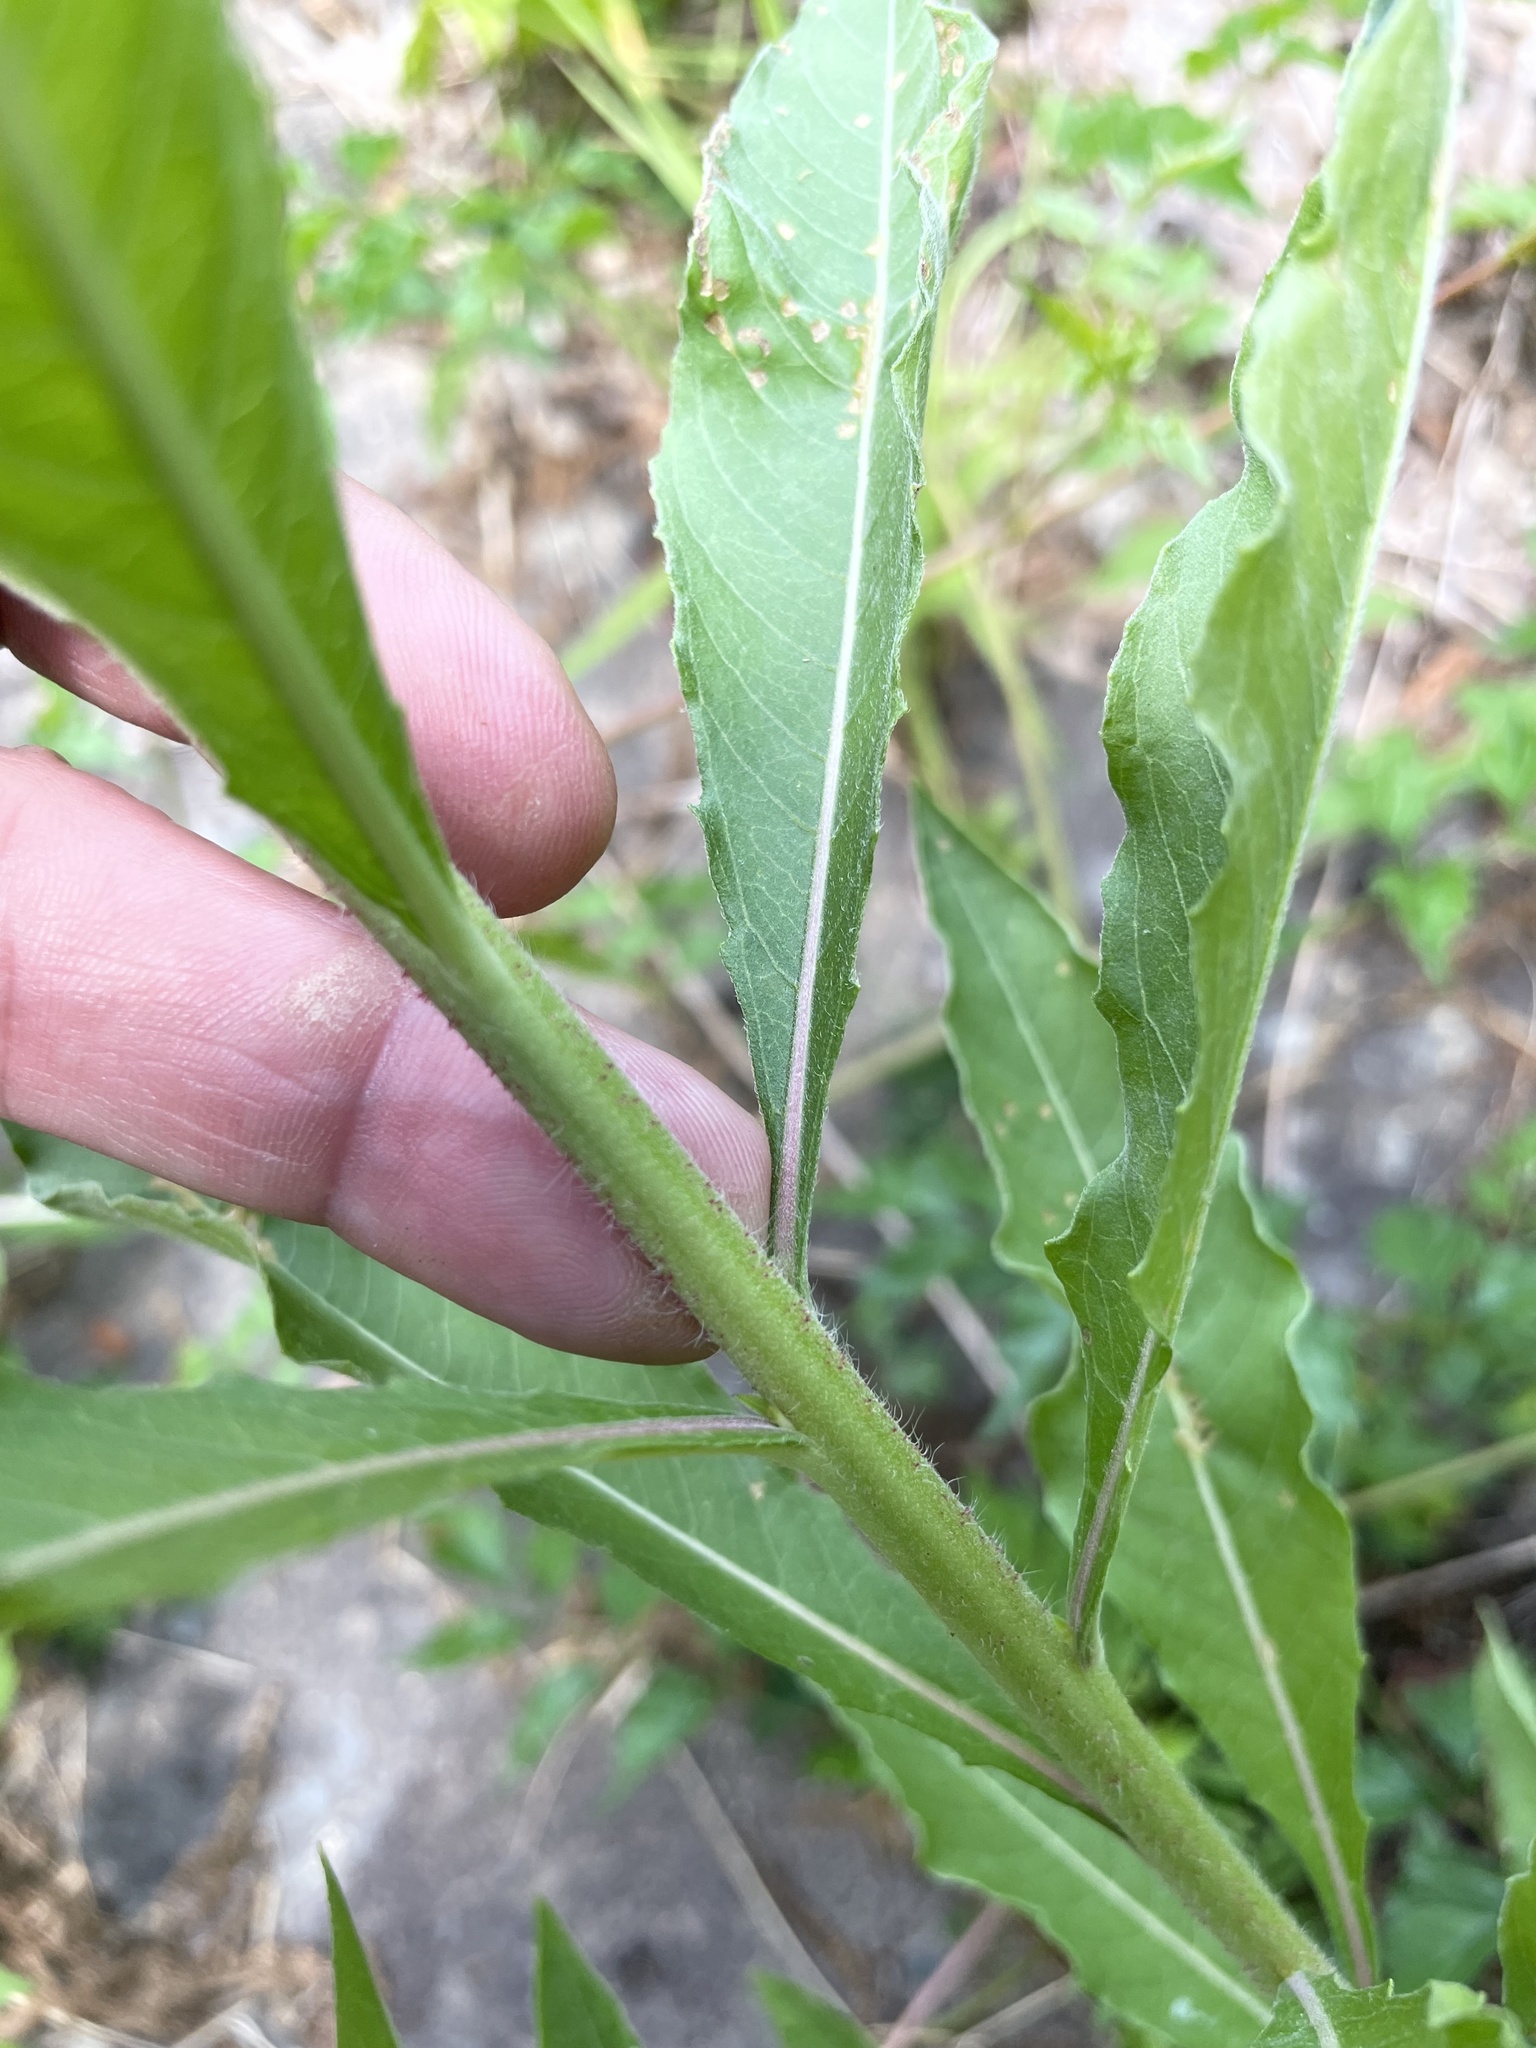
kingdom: Plantae
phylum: Tracheophyta
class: Magnoliopsida
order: Myrtales
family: Onagraceae
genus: Oenothera
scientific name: Oenothera biennis
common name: Common evening-primrose
